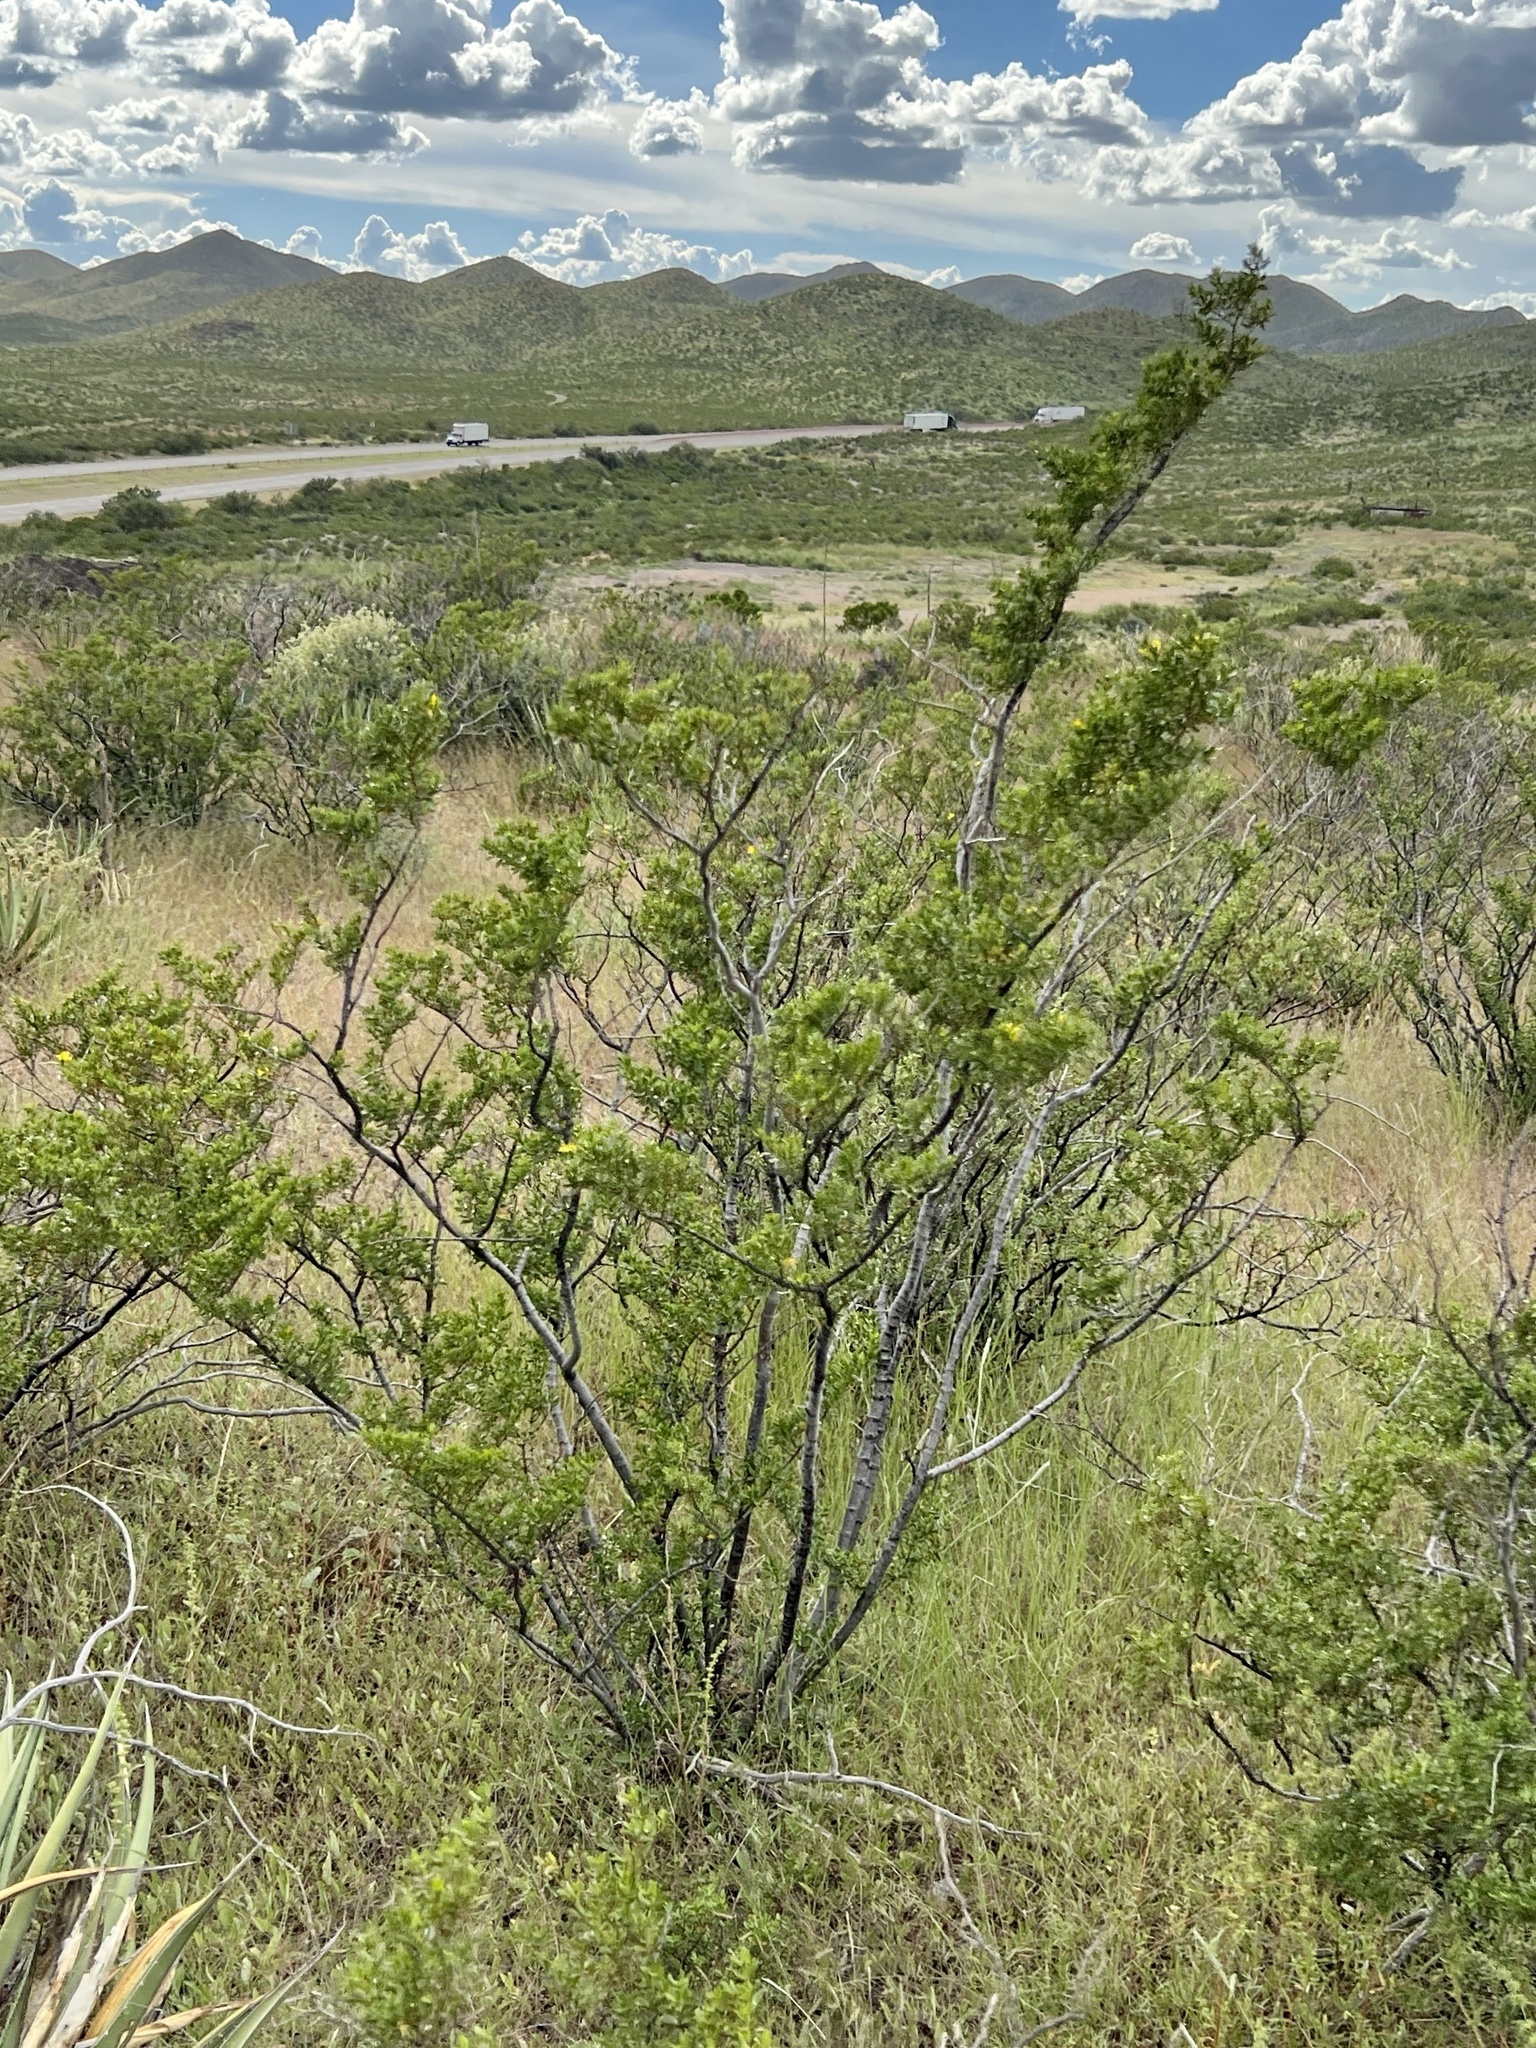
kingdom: Plantae
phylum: Tracheophyta
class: Magnoliopsida
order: Zygophyllales
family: Zygophyllaceae
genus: Larrea
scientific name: Larrea tridentata
